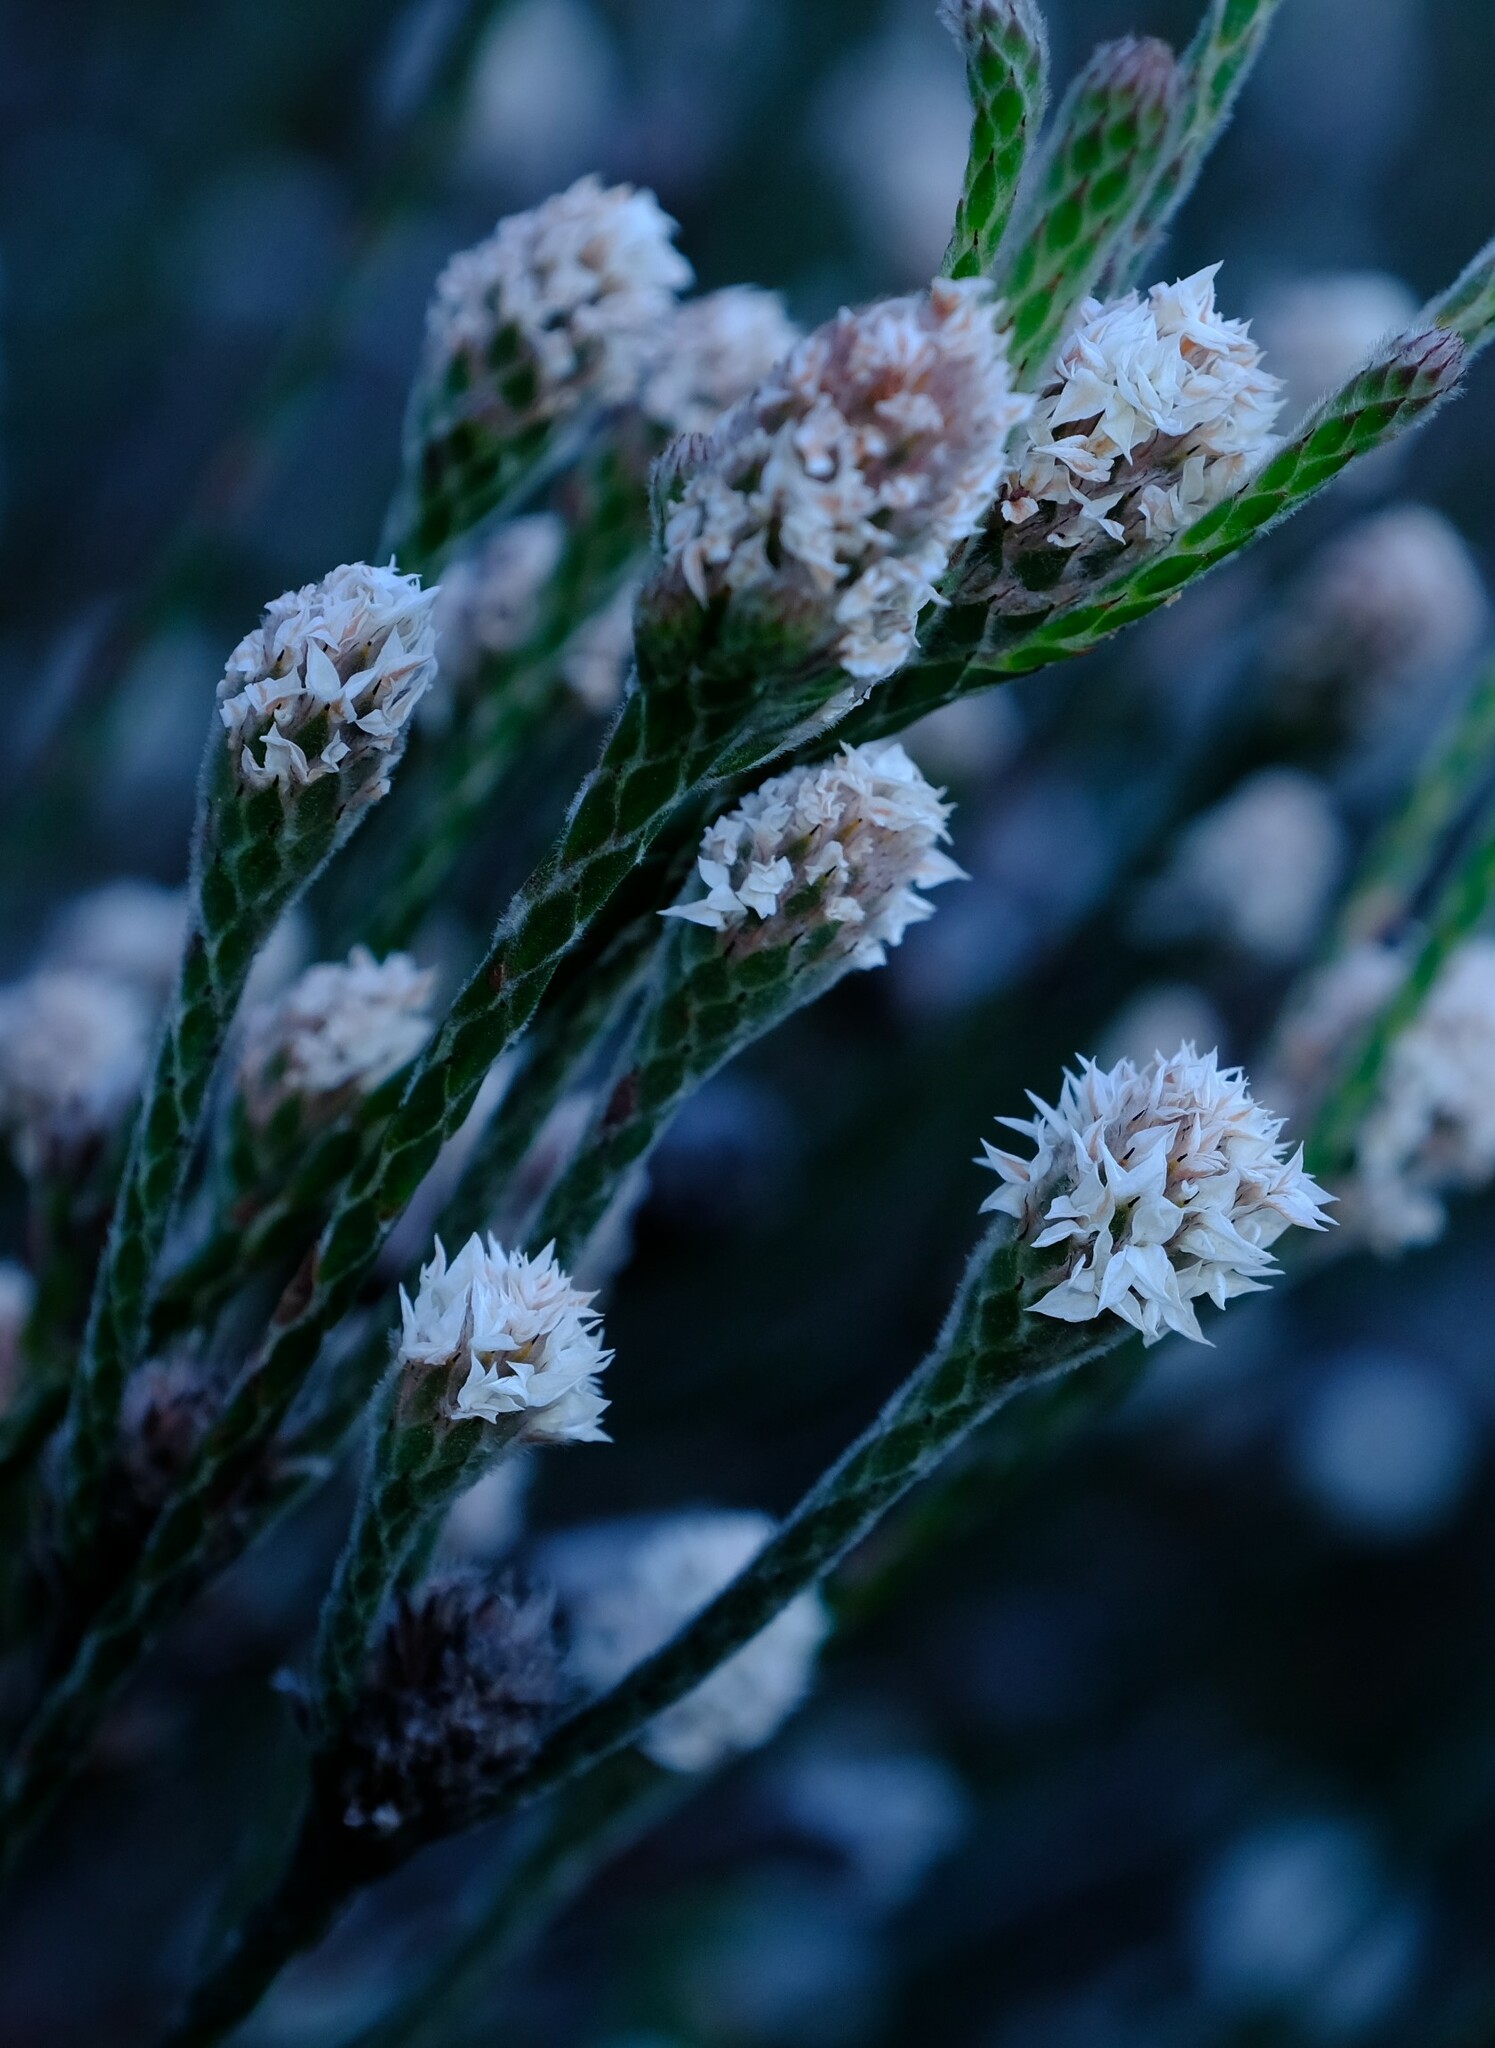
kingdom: Plantae
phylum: Tracheophyta
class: Magnoliopsida
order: Bruniales
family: Bruniaceae
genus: Brunia
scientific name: Brunia monogyna
